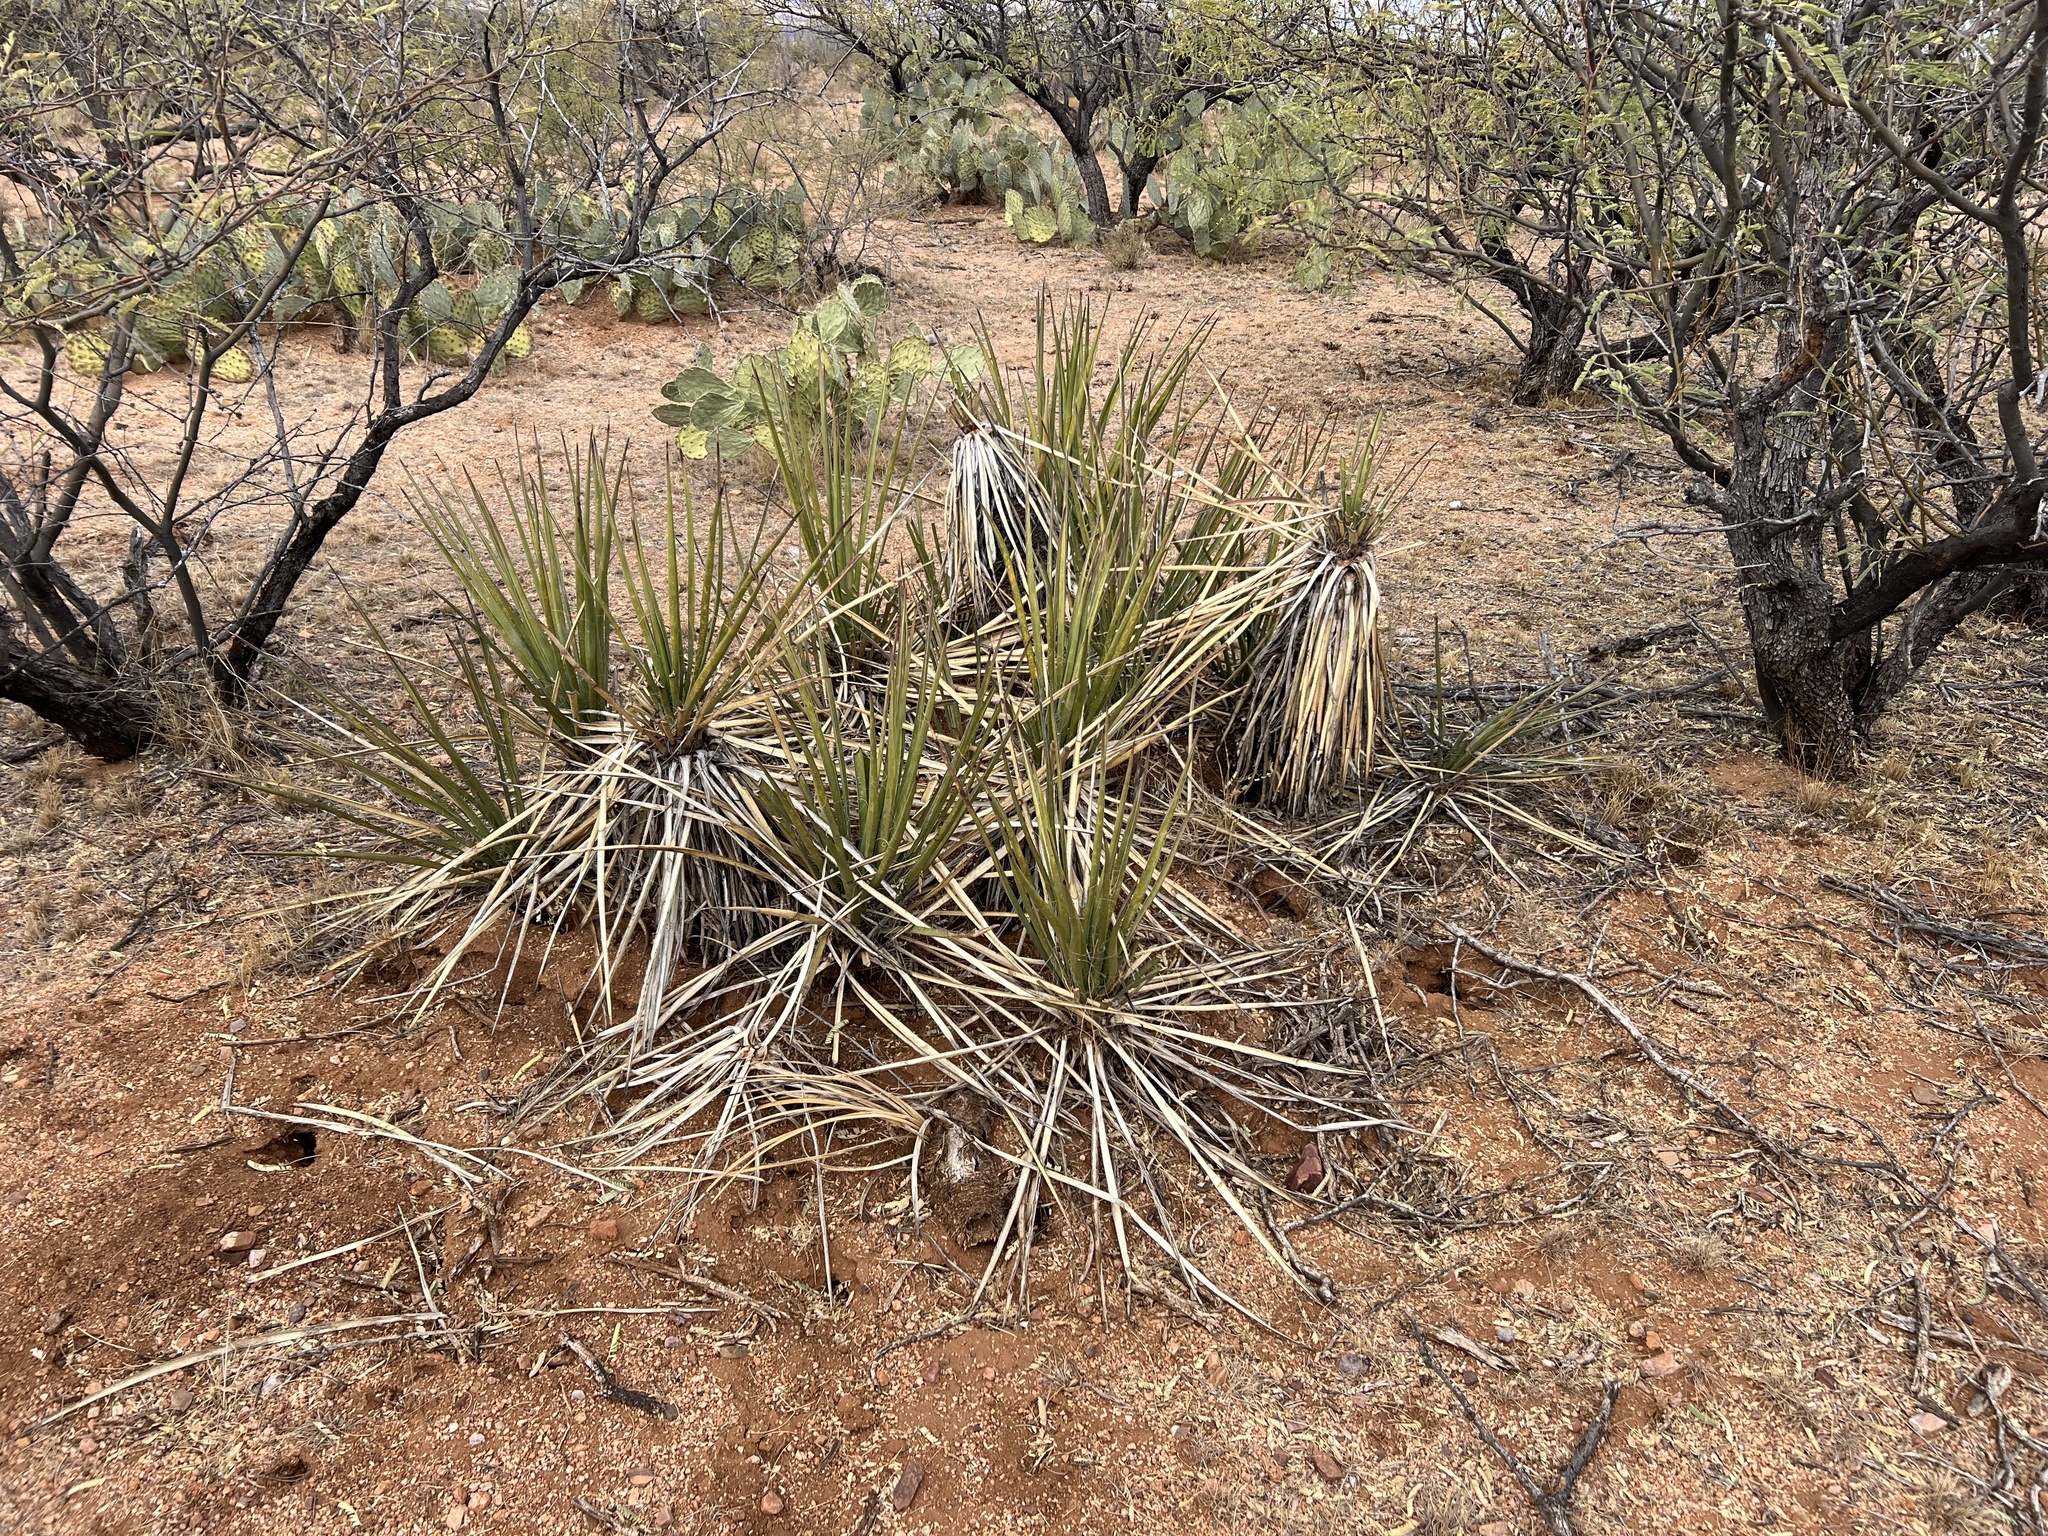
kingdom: Plantae
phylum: Tracheophyta
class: Liliopsida
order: Asparagales
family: Asparagaceae
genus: Yucca
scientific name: Yucca baccata
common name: Banana yucca
